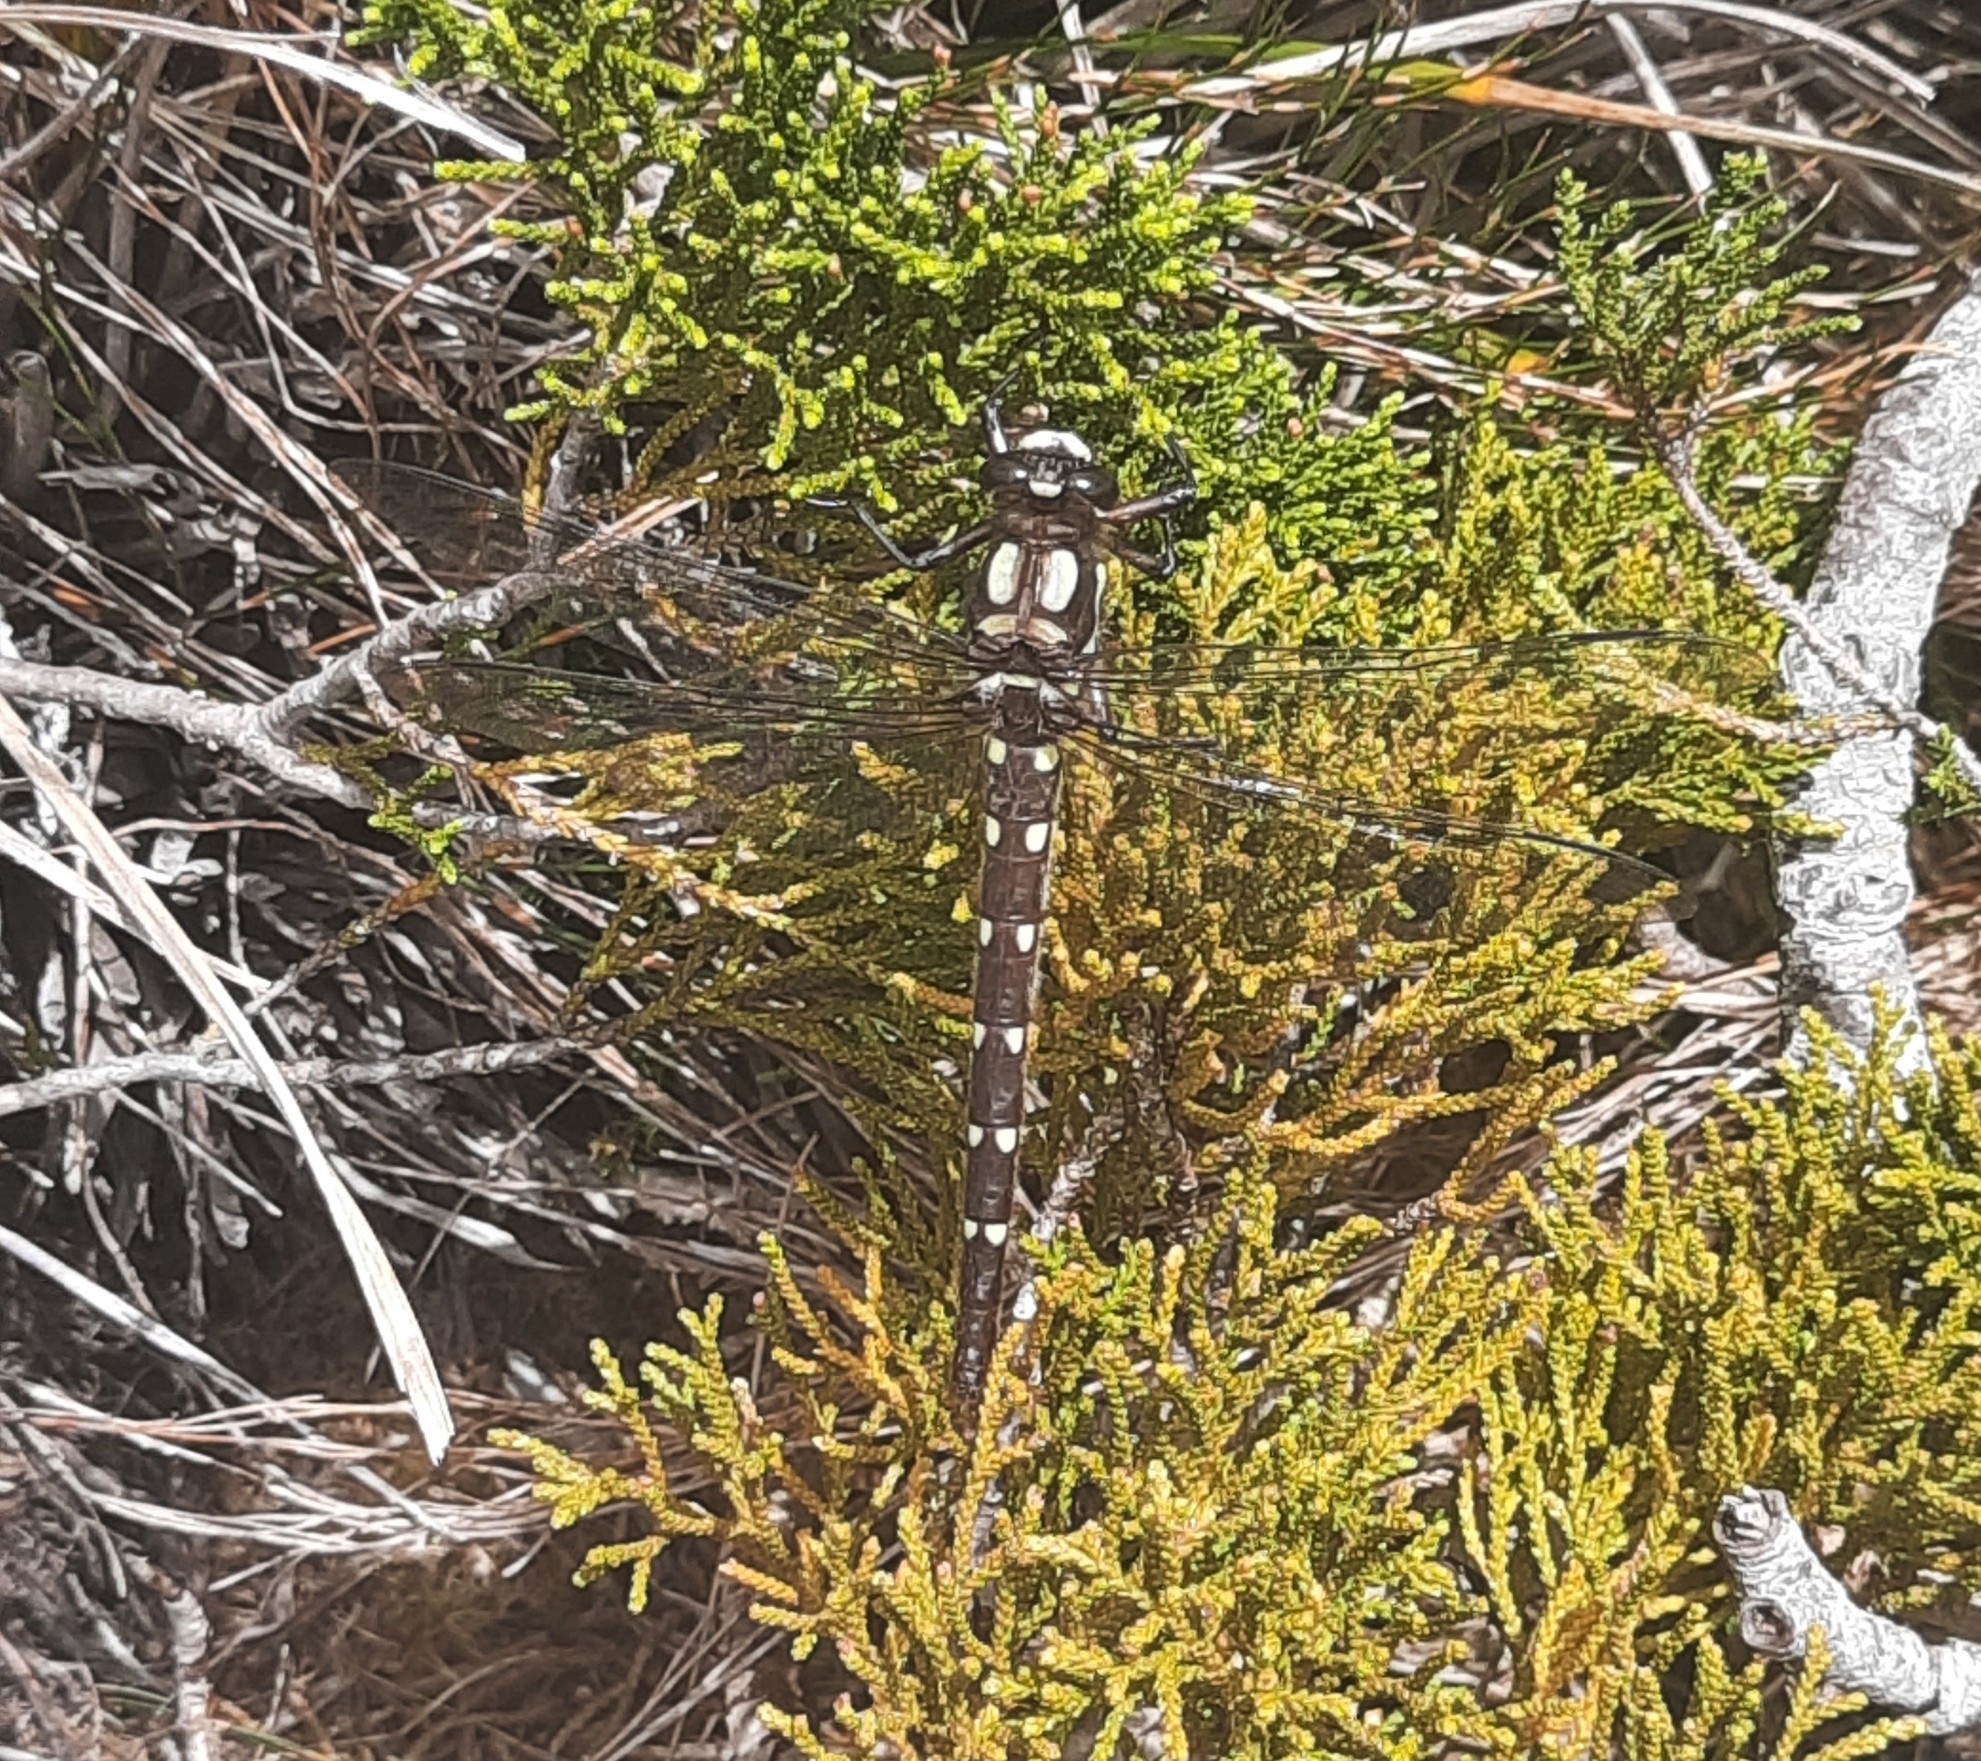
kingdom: Animalia
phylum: Arthropoda
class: Insecta
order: Odonata
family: Petaluridae
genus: Uropetala
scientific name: Uropetala carovei
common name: Bush giant dragonfly
